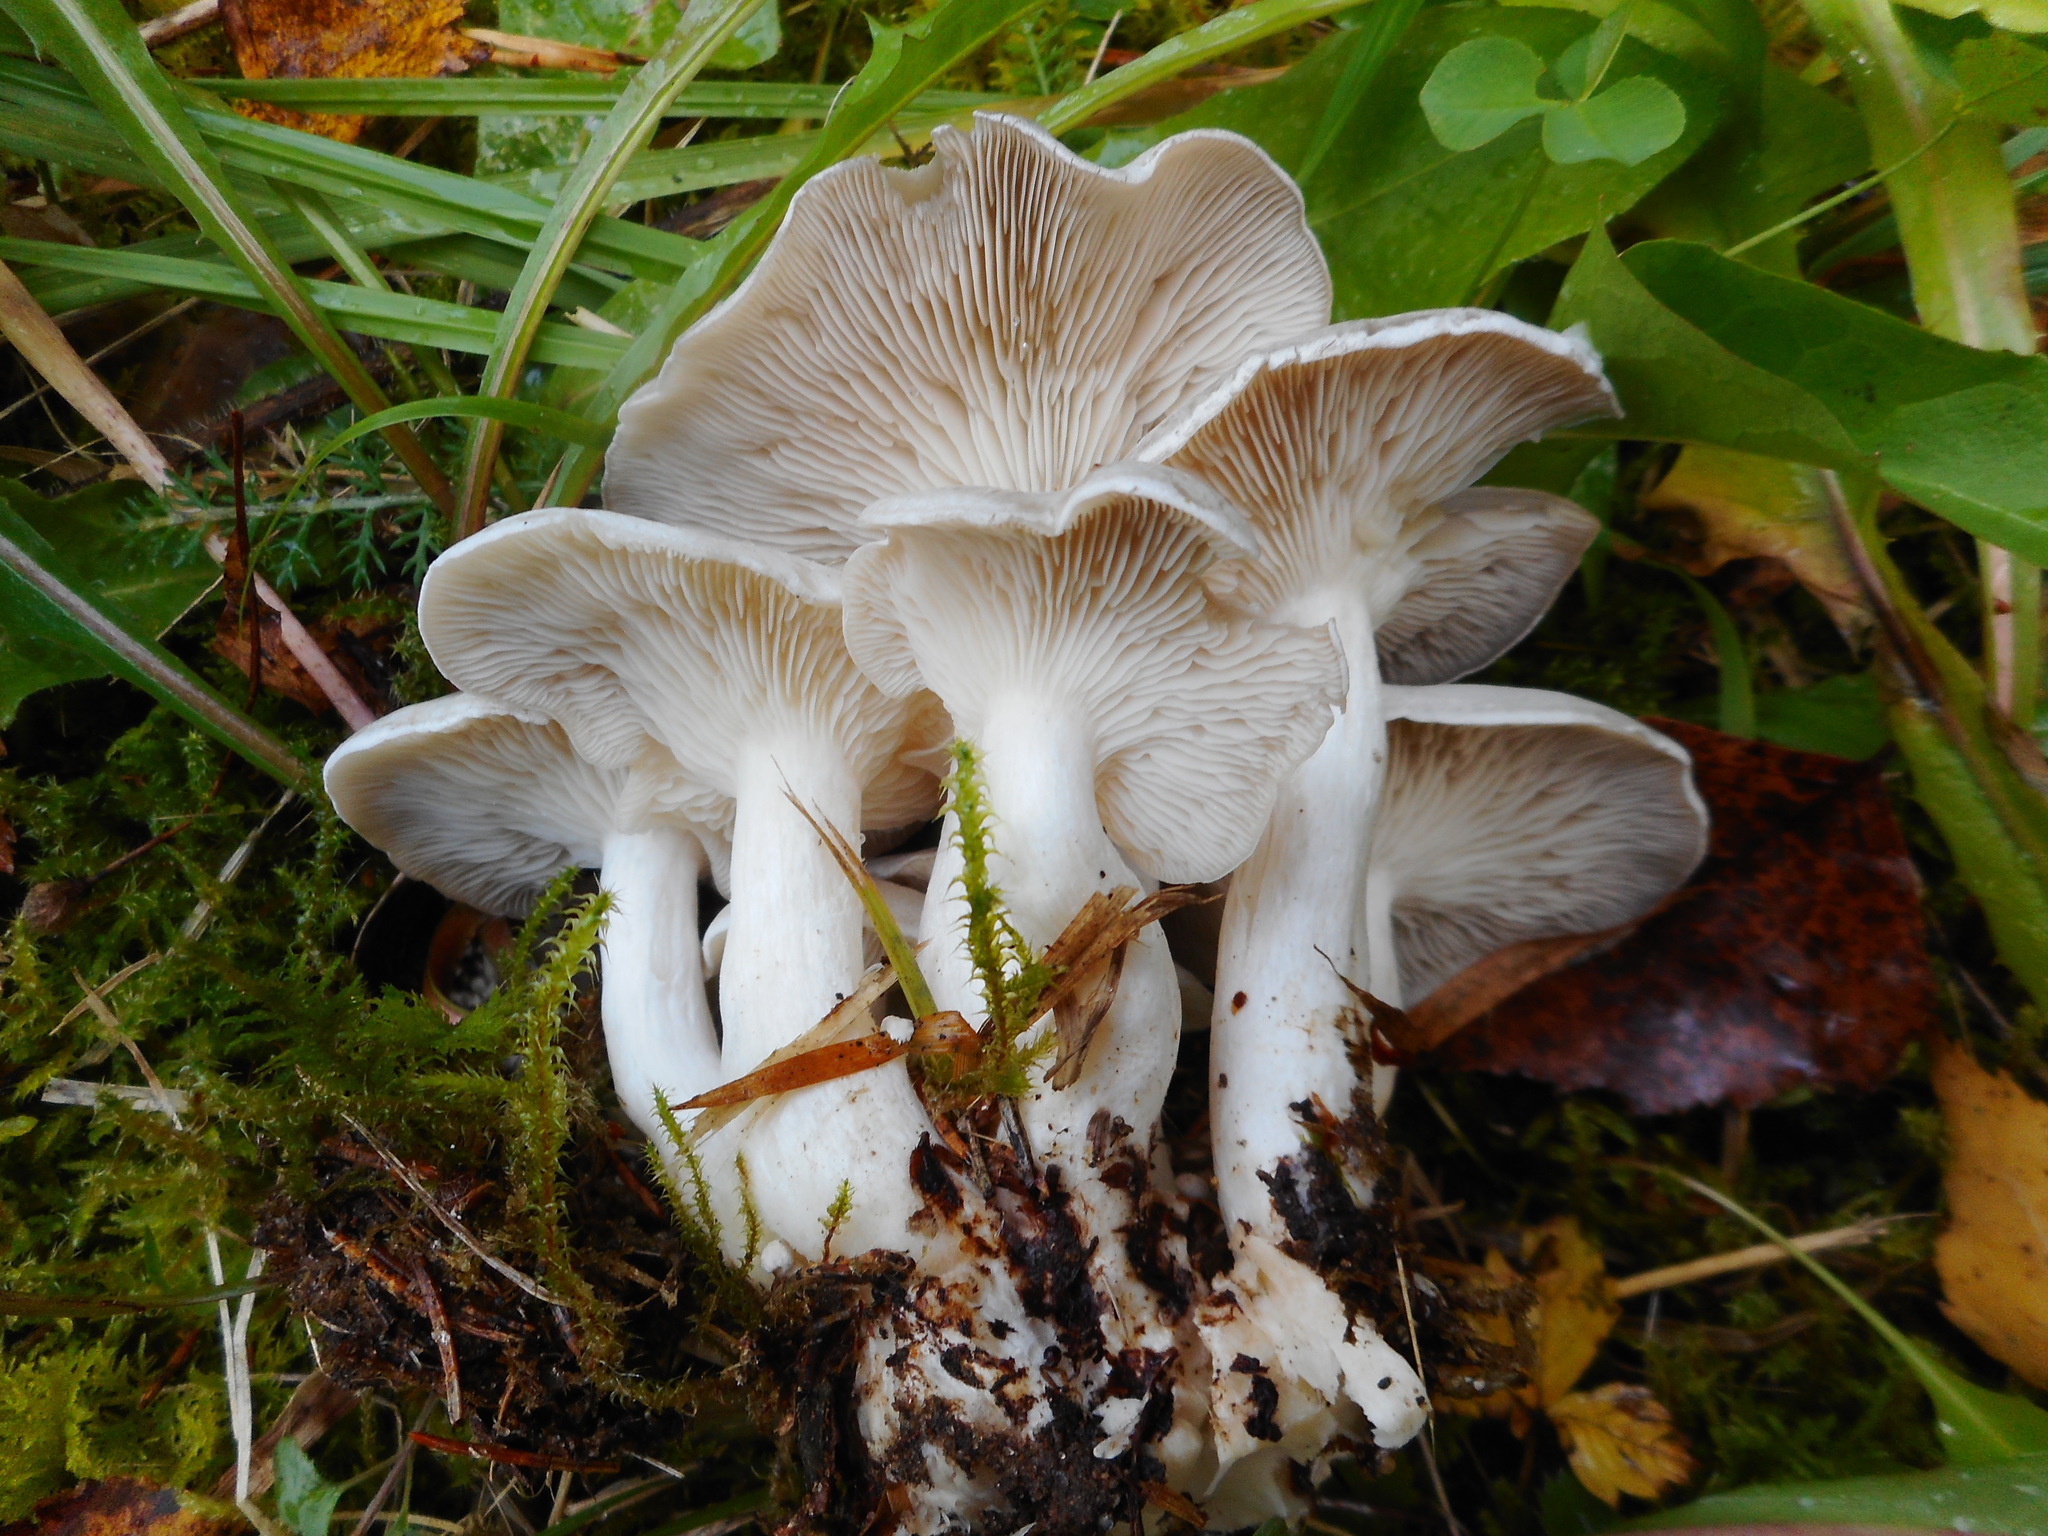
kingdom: Fungi
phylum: Basidiomycota
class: Agaricomycetes
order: Agaricales
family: Tricholomataceae
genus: Leucocybe
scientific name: Leucocybe connata
